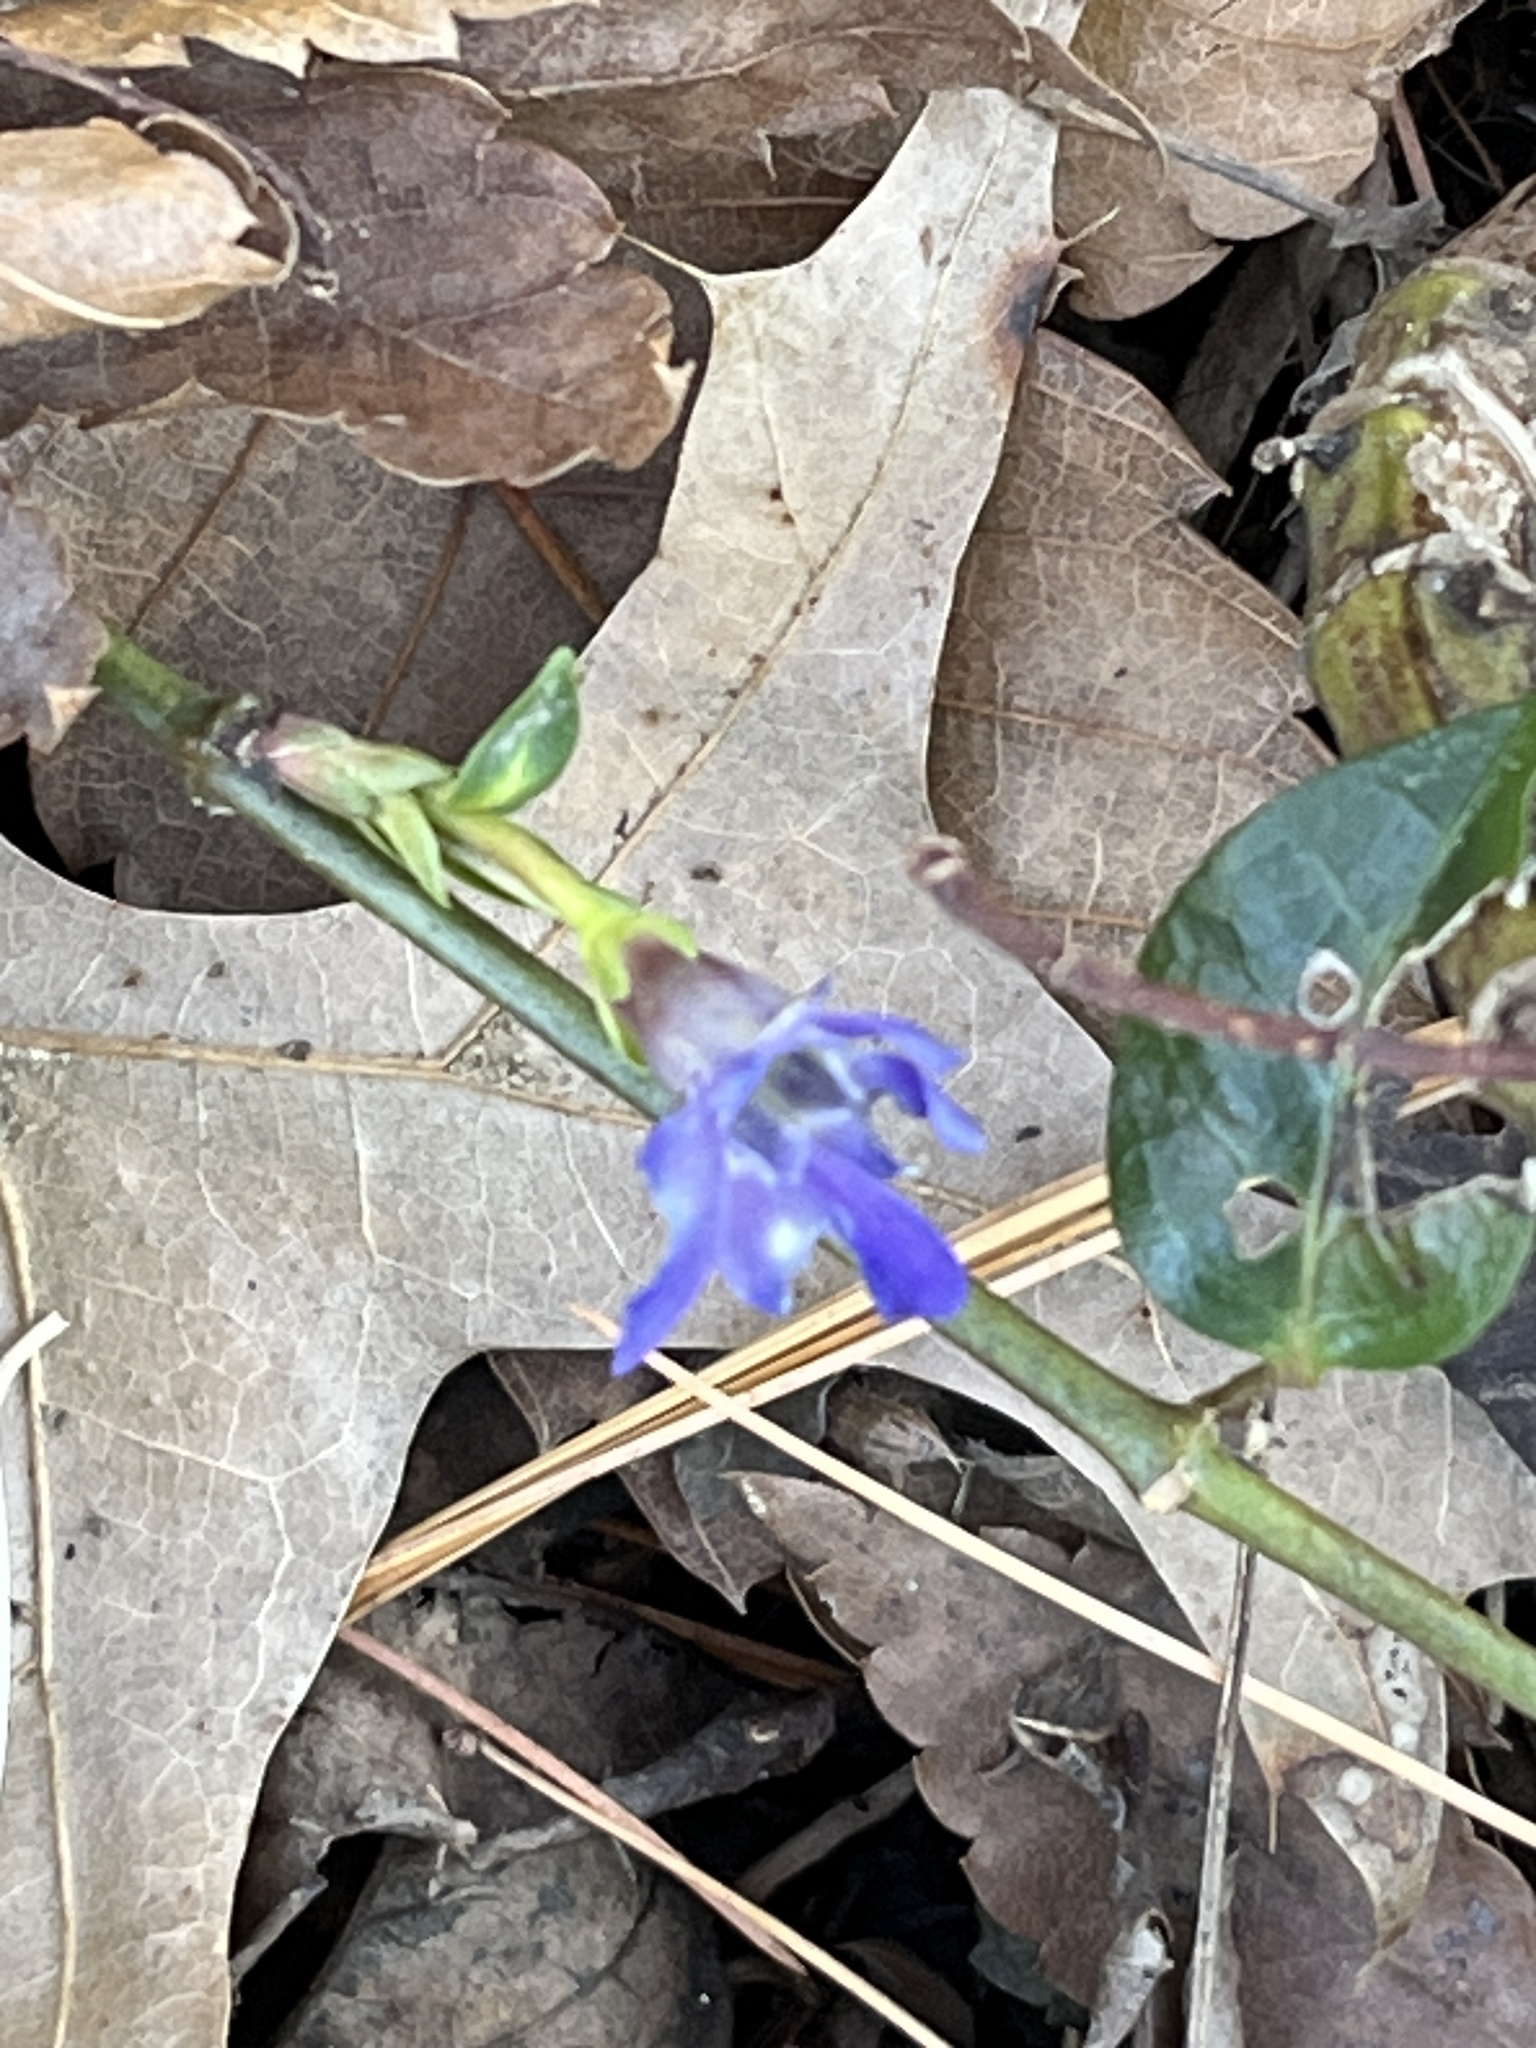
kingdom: Plantae
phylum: Tracheophyta
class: Magnoliopsida
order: Gentianales
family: Apocynaceae
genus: Vinca
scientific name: Vinca minor
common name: Lesser periwinkle
